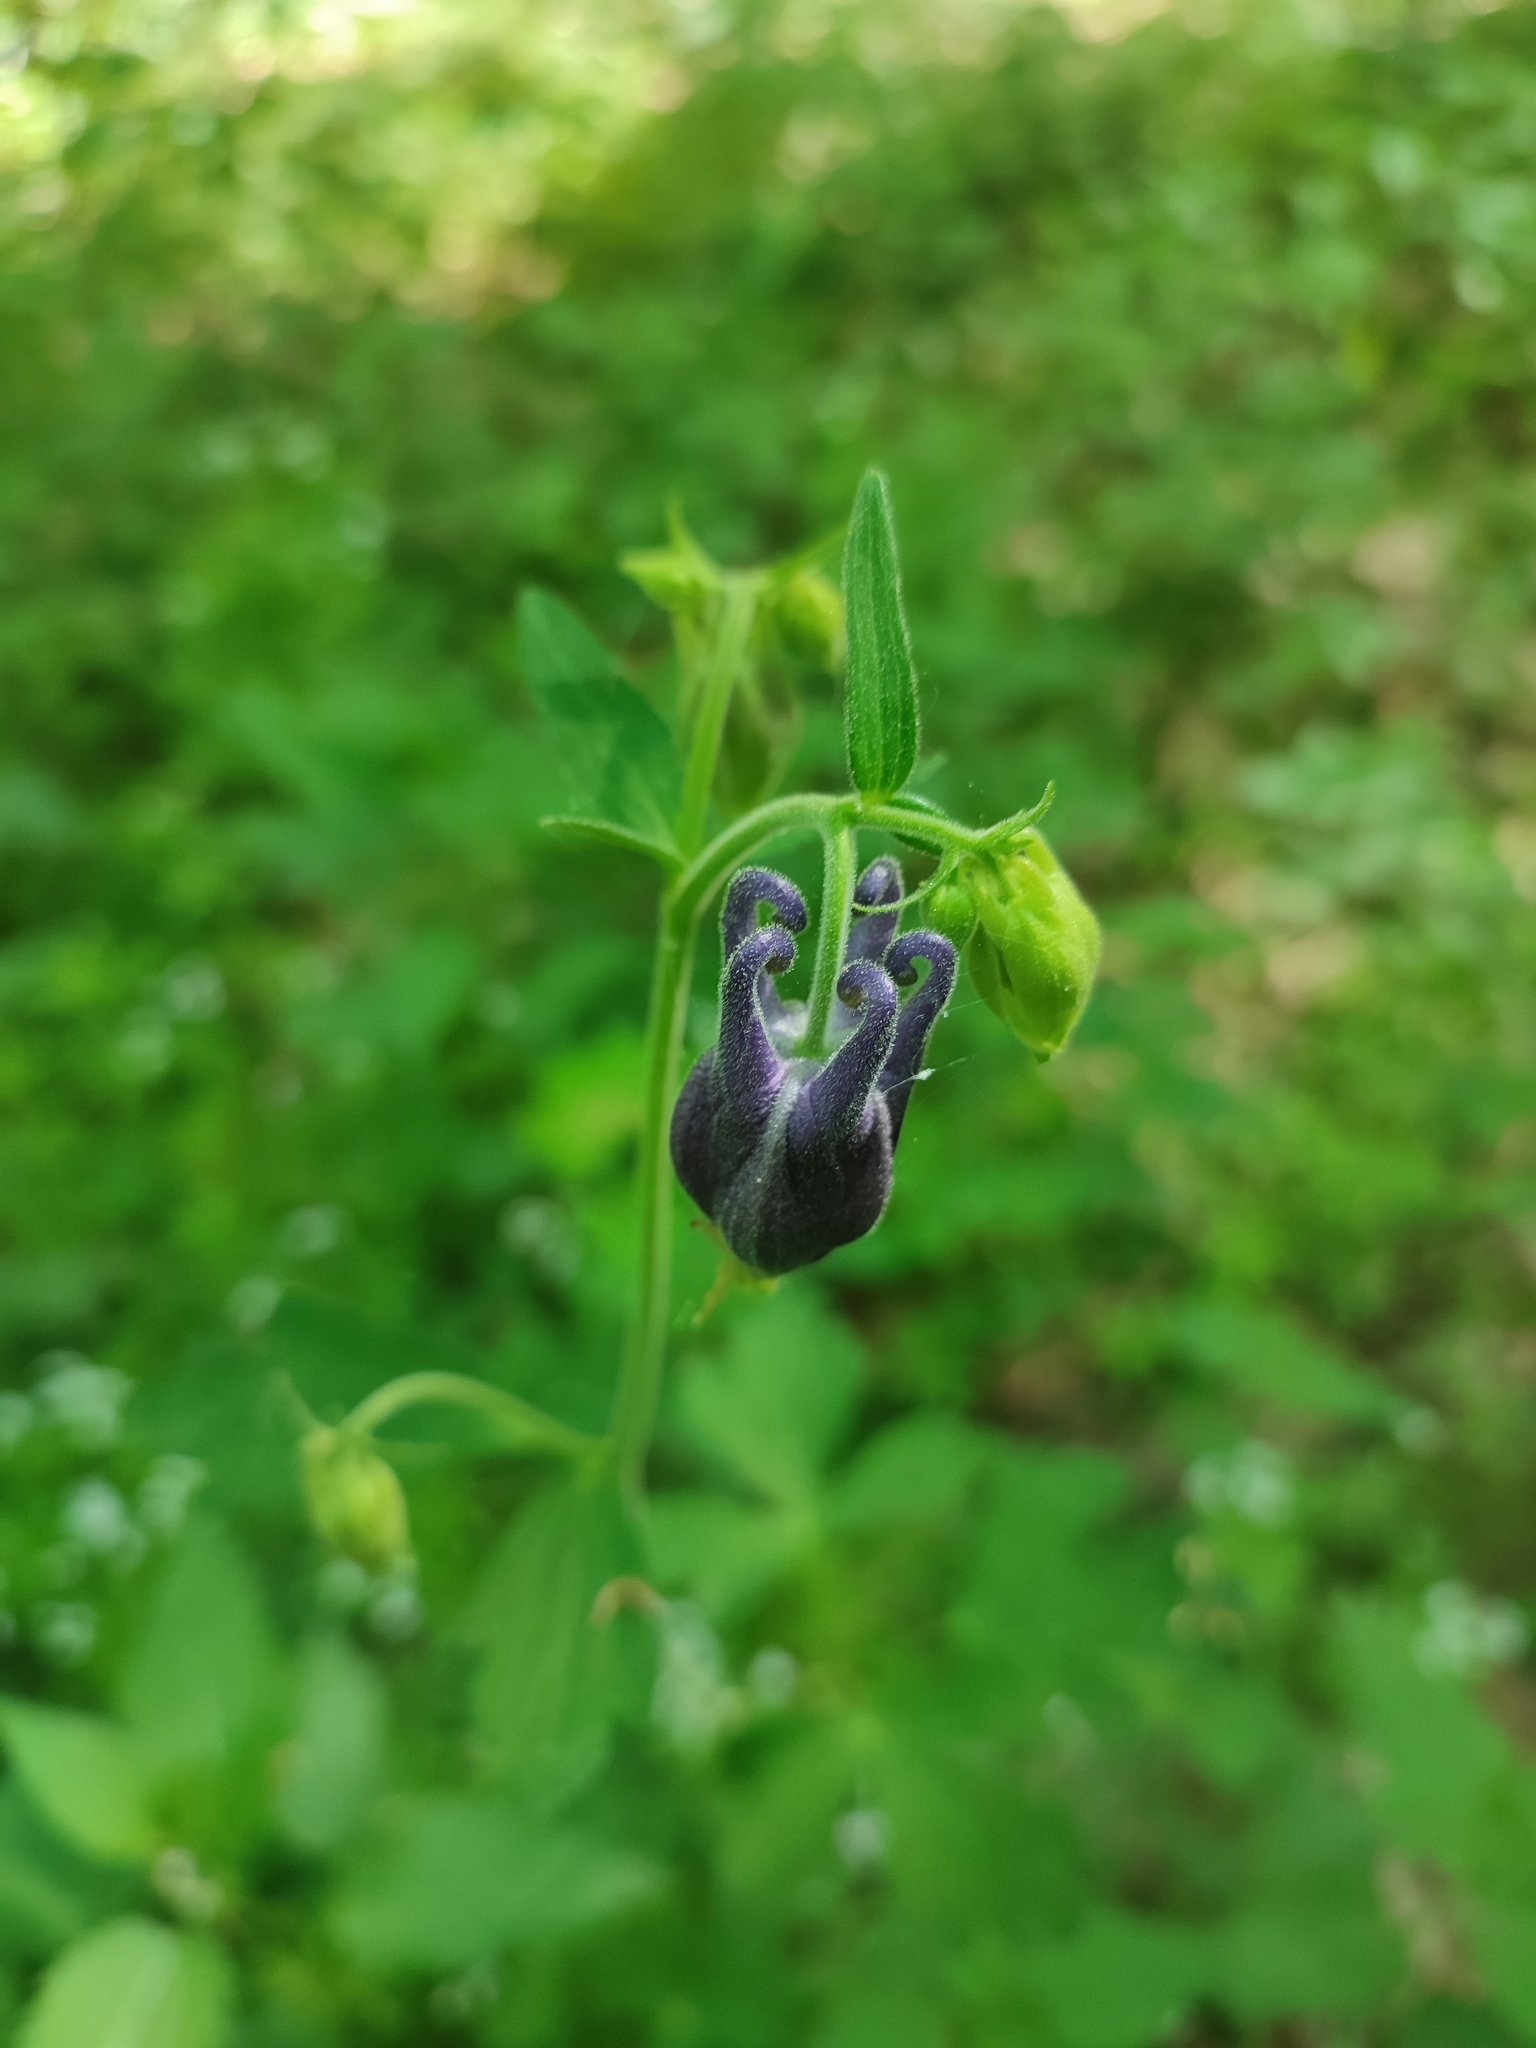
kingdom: Plantae
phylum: Tracheophyta
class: Magnoliopsida
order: Ranunculales
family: Ranunculaceae
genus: Aquilegia
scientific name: Aquilegia vulgaris
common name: Columbine
